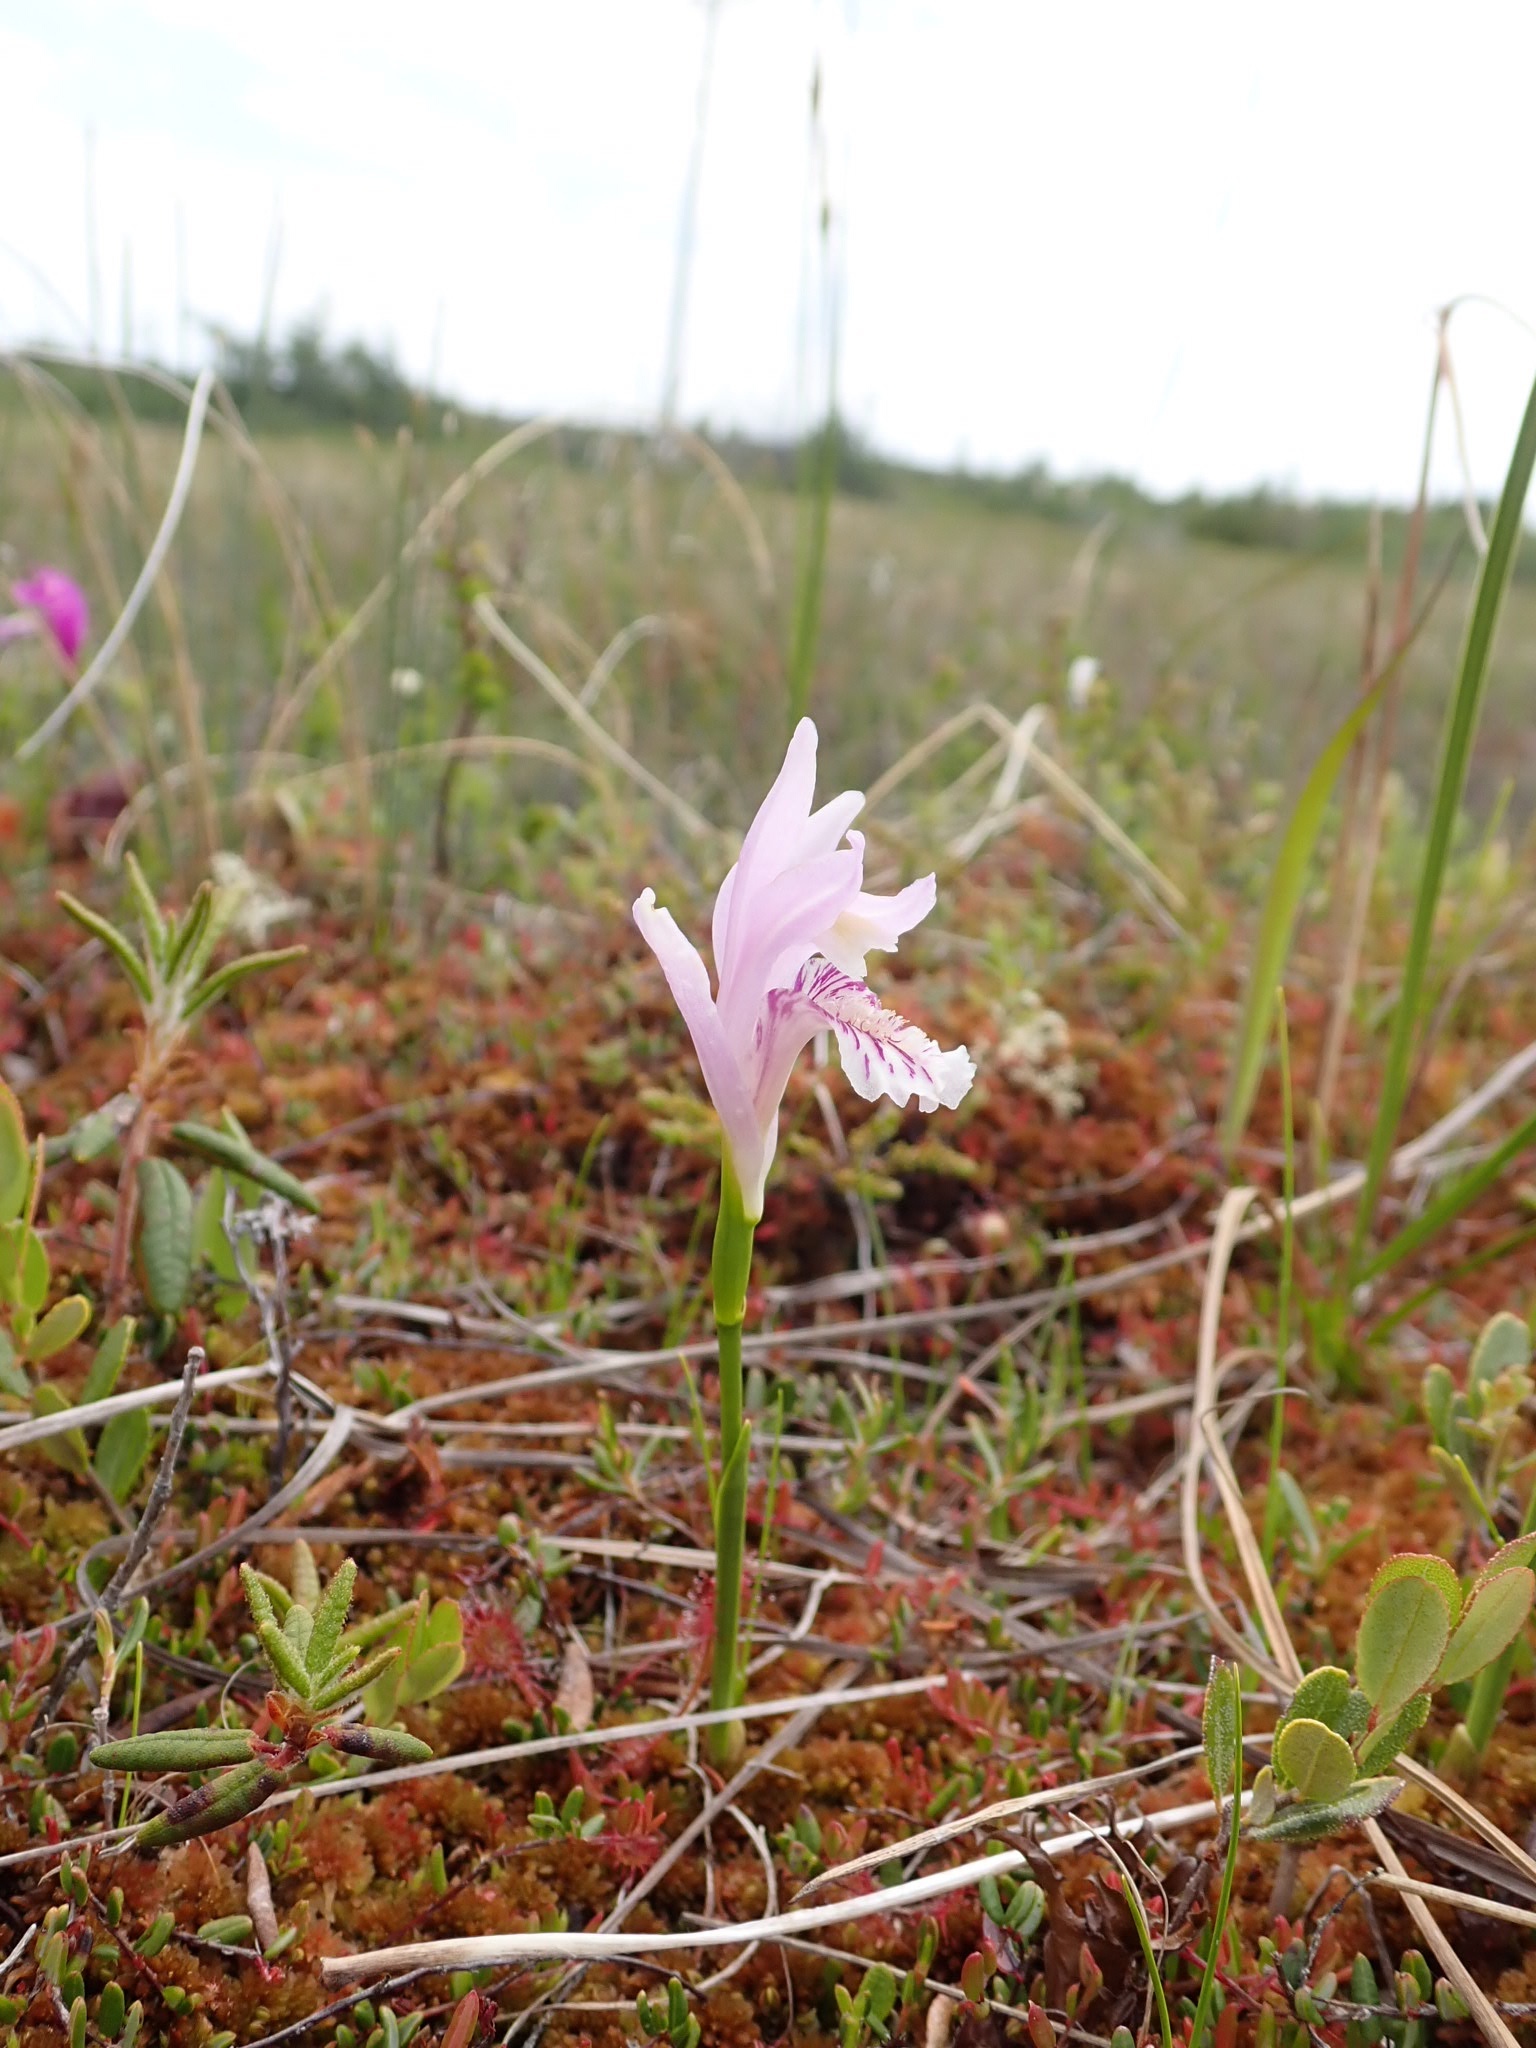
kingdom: Plantae
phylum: Tracheophyta
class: Liliopsida
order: Asparagales
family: Orchidaceae
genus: Arethusa
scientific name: Arethusa bulbosa
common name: Arethusa
